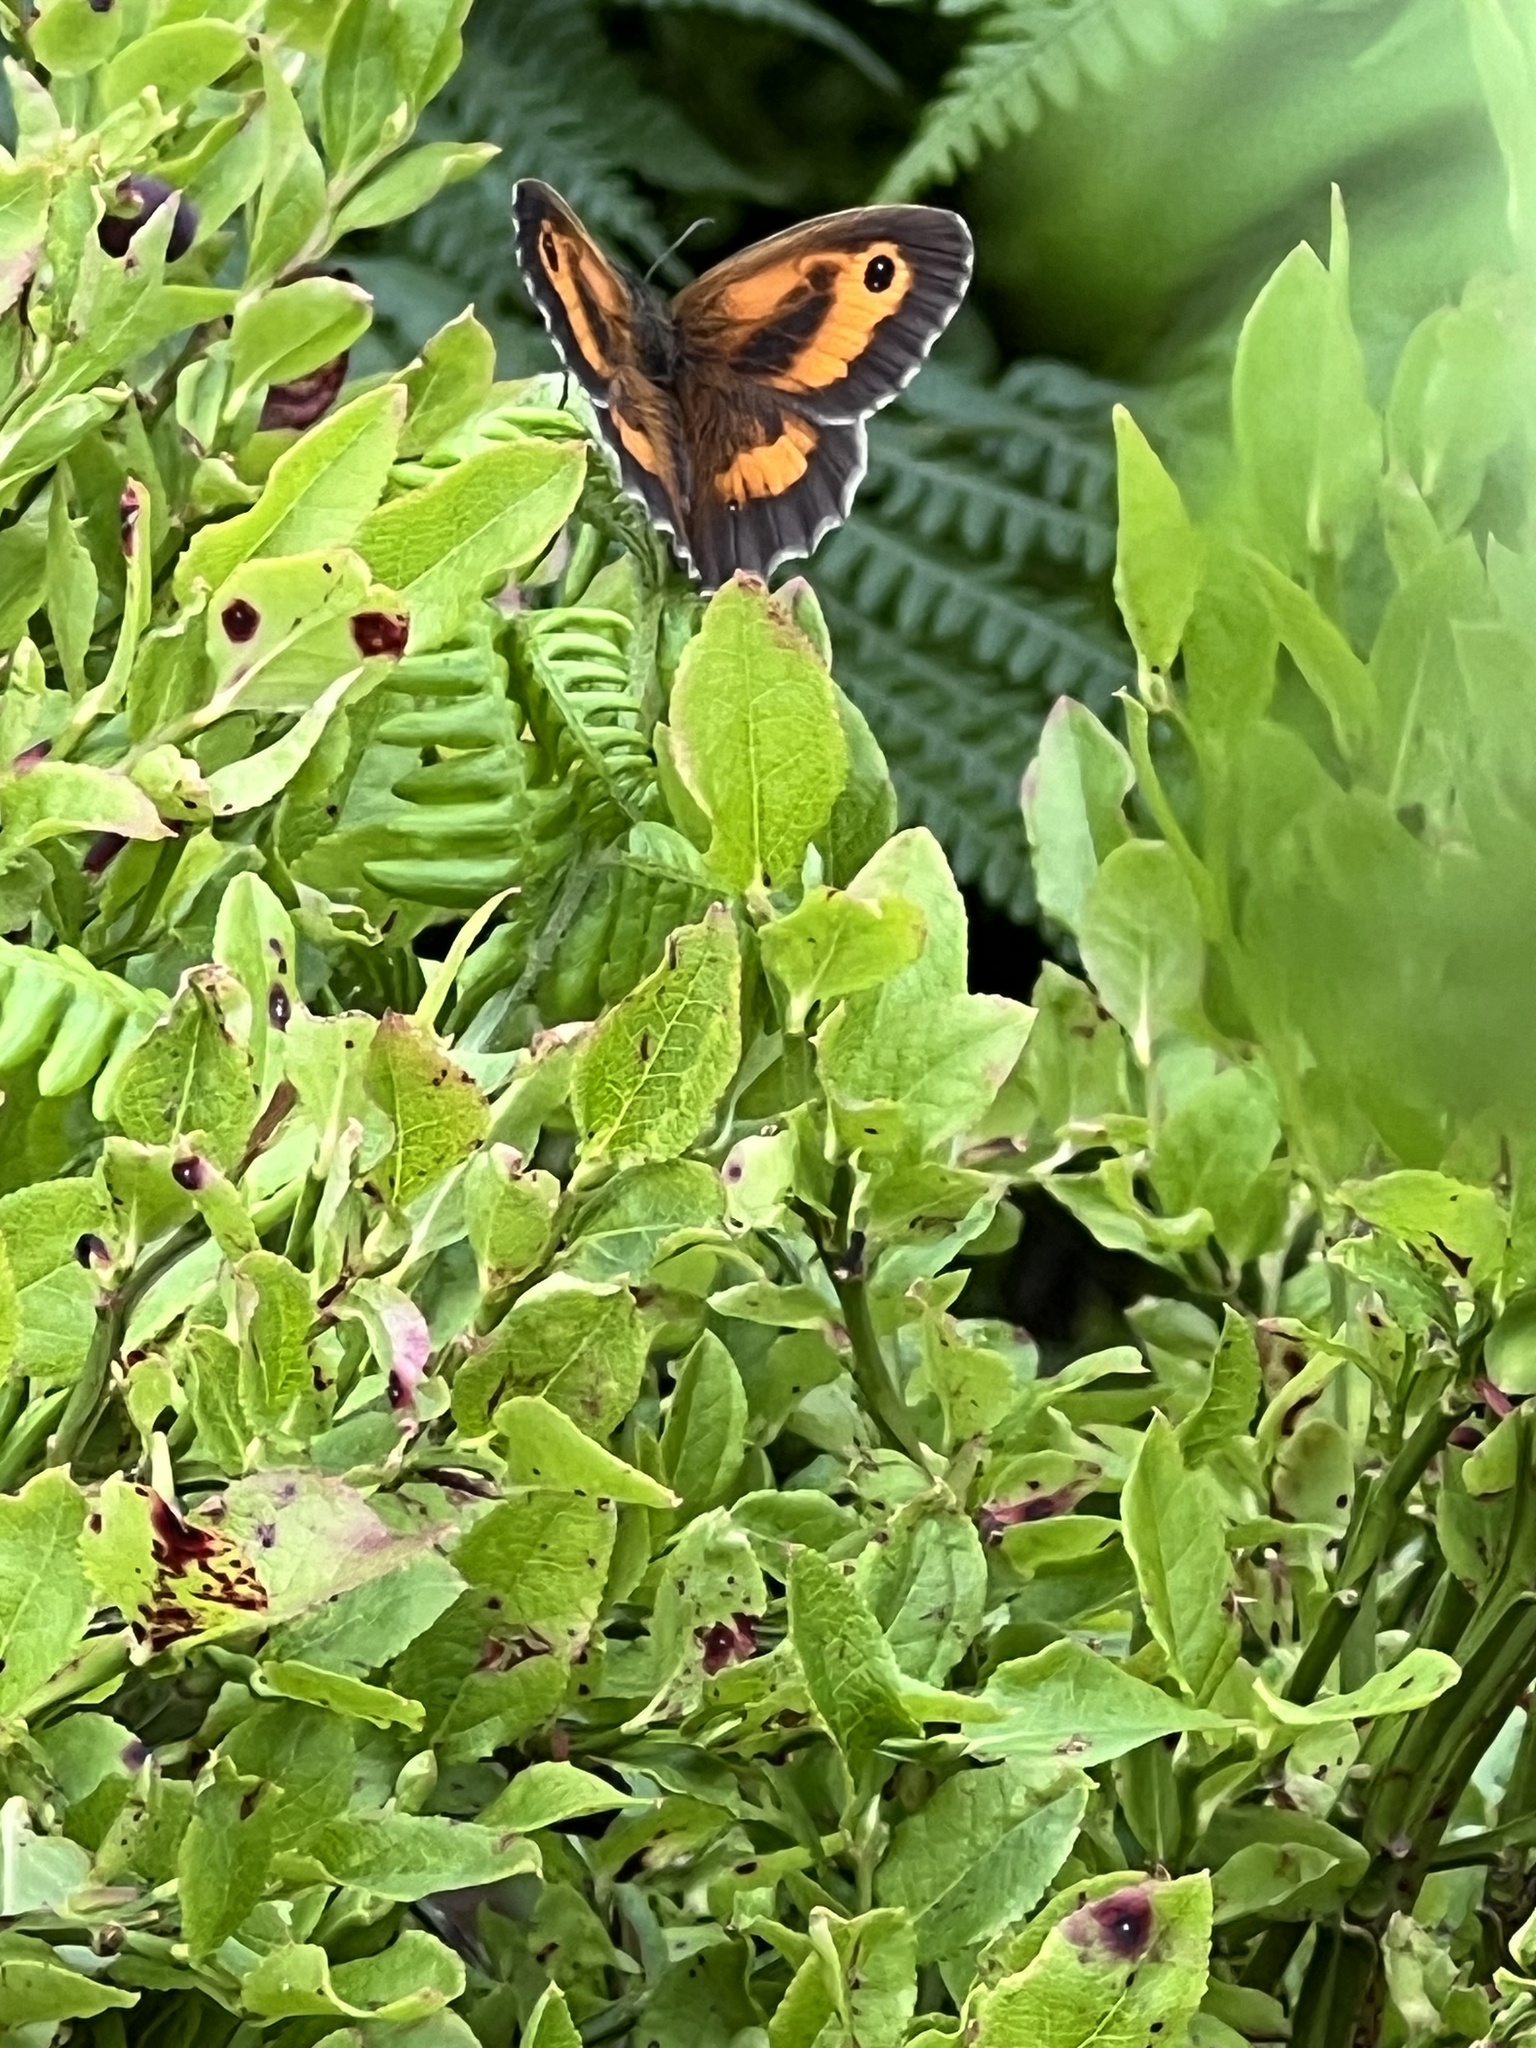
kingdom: Animalia
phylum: Arthropoda
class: Insecta
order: Lepidoptera
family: Nymphalidae
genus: Pyronia
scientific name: Pyronia tithonus
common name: Gatekeeper
